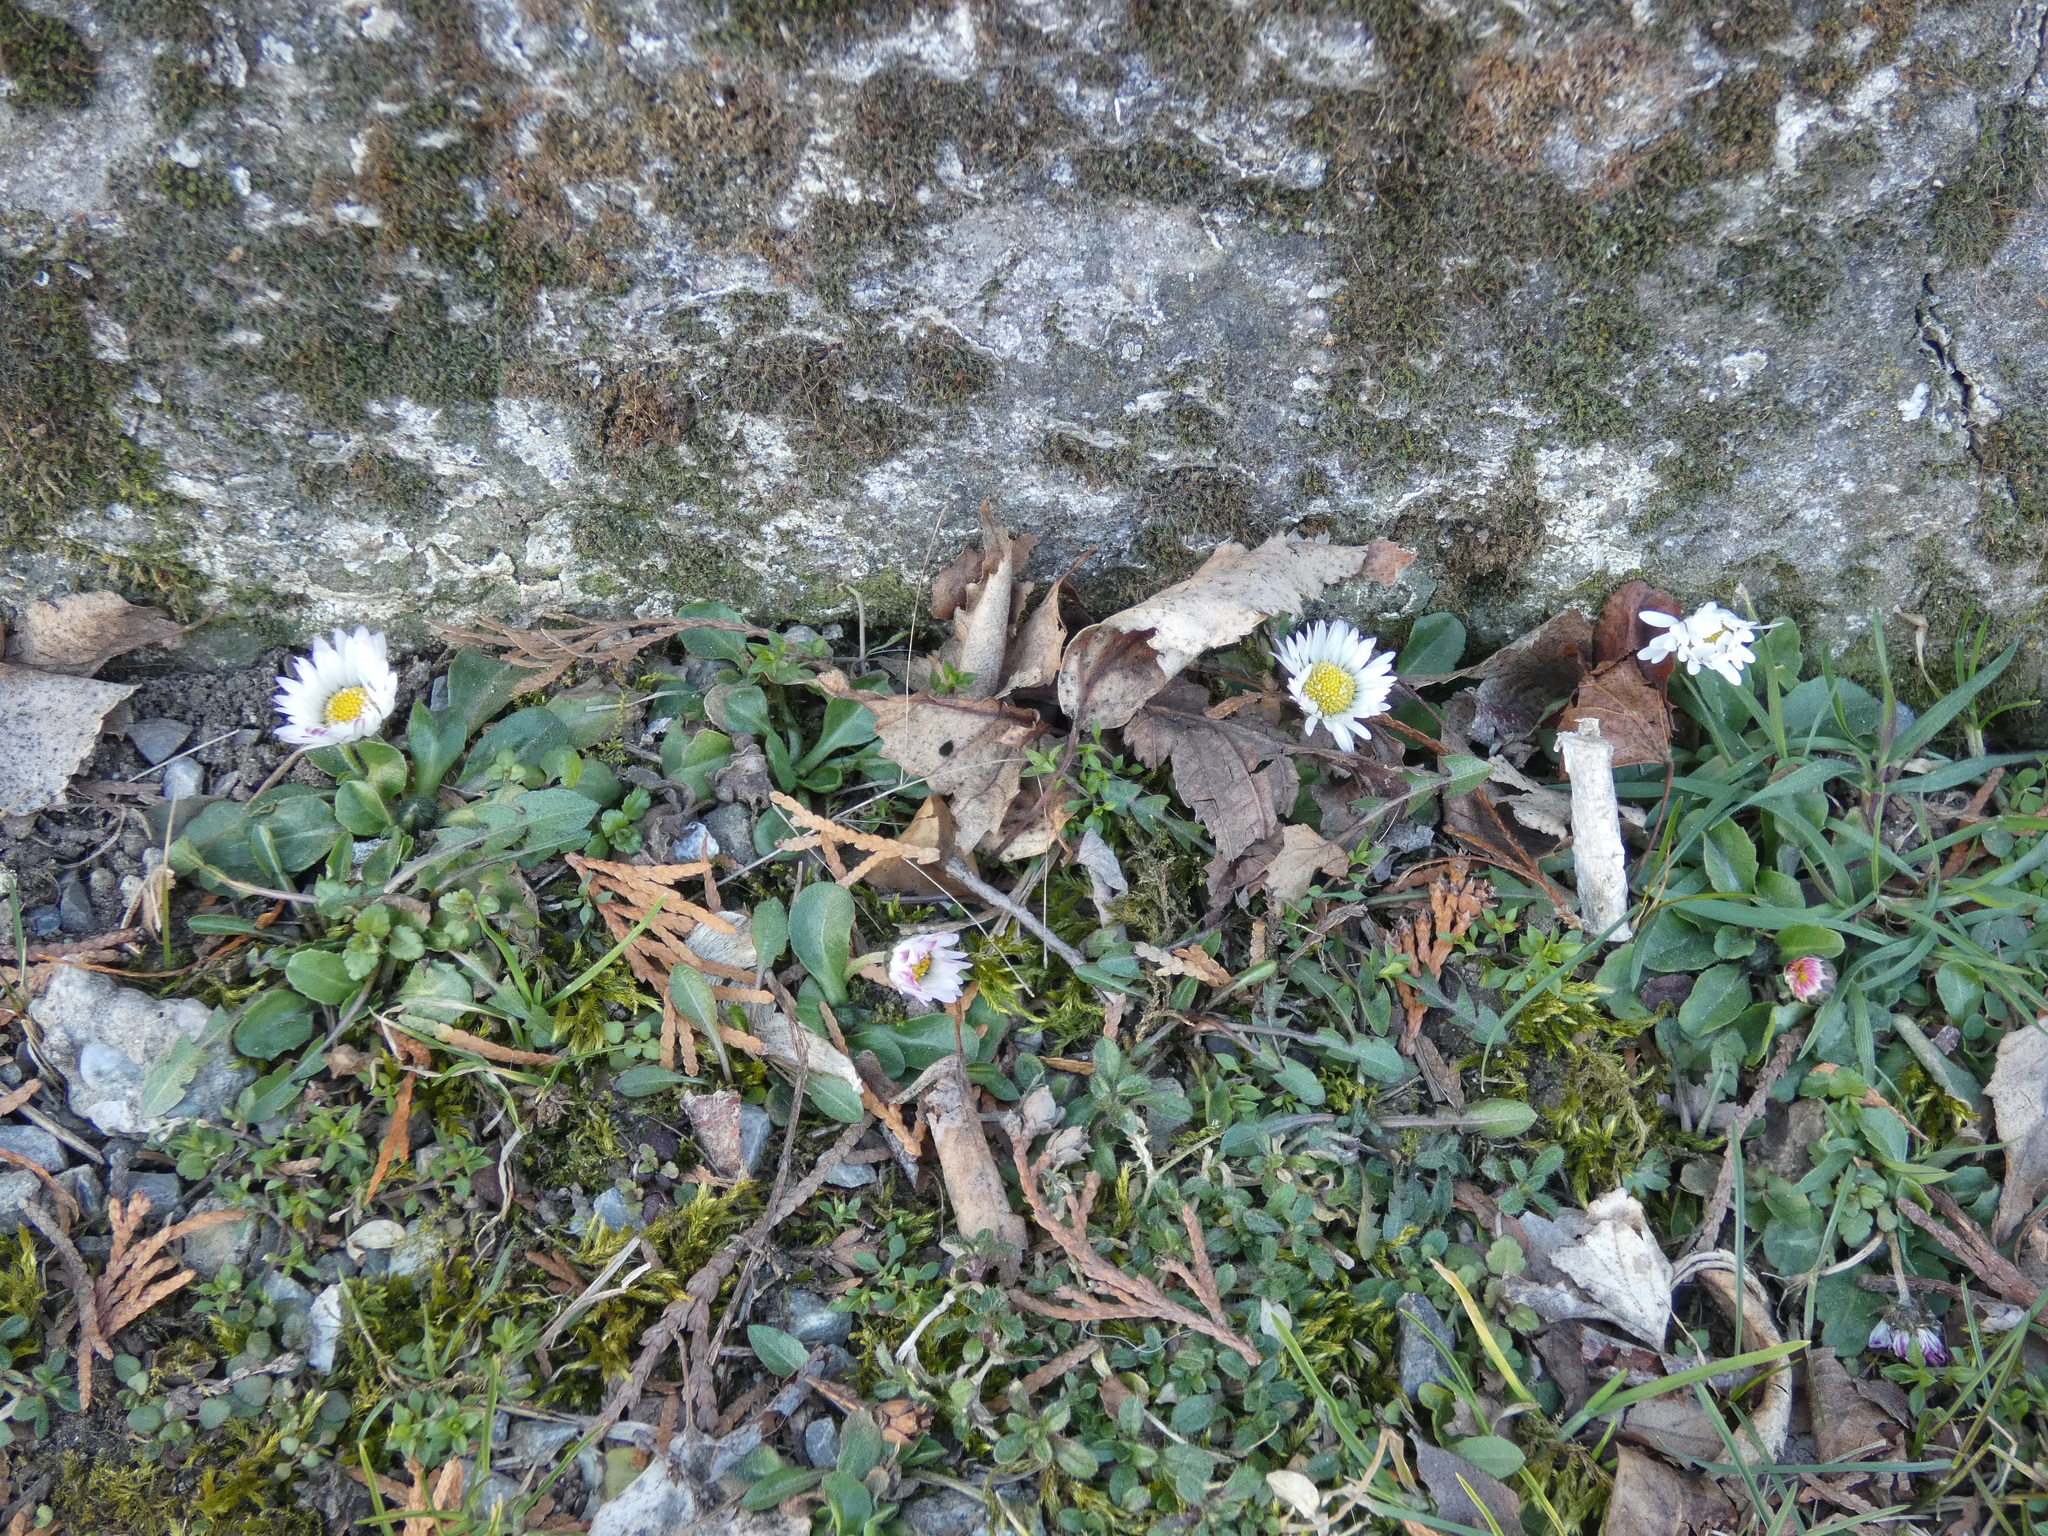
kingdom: Plantae
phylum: Tracheophyta
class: Magnoliopsida
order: Asterales
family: Asteraceae
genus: Bellis
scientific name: Bellis perennis
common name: Lawndaisy
